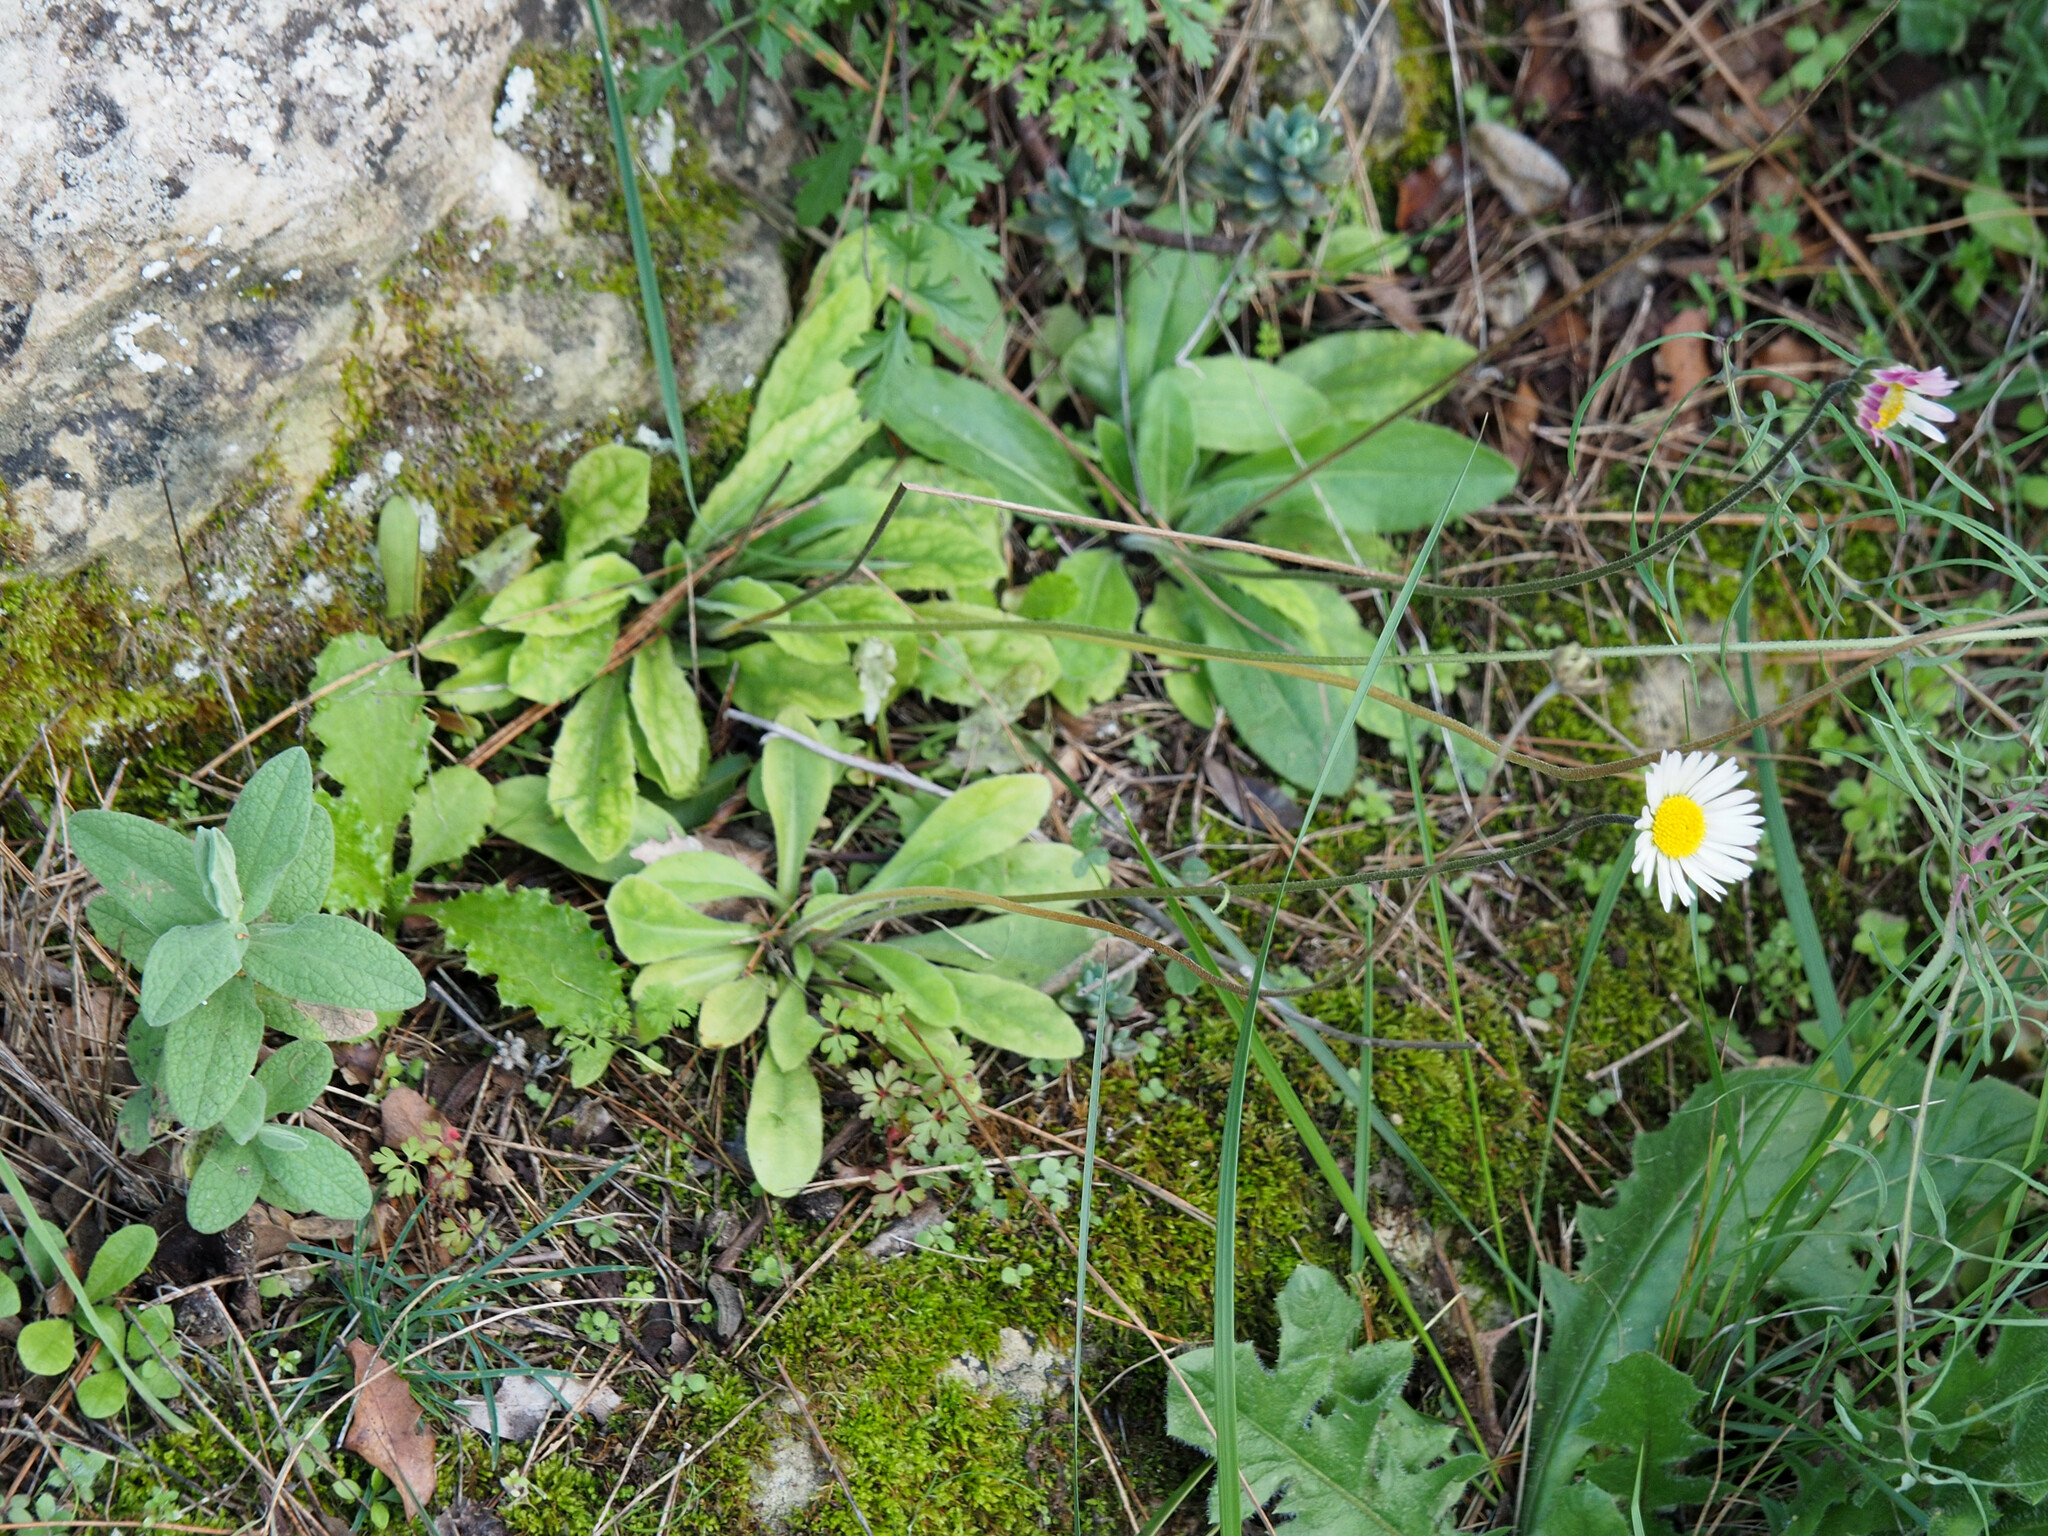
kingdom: Plantae
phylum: Tracheophyta
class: Magnoliopsida
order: Asterales
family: Asteraceae
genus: Bellis
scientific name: Bellis
